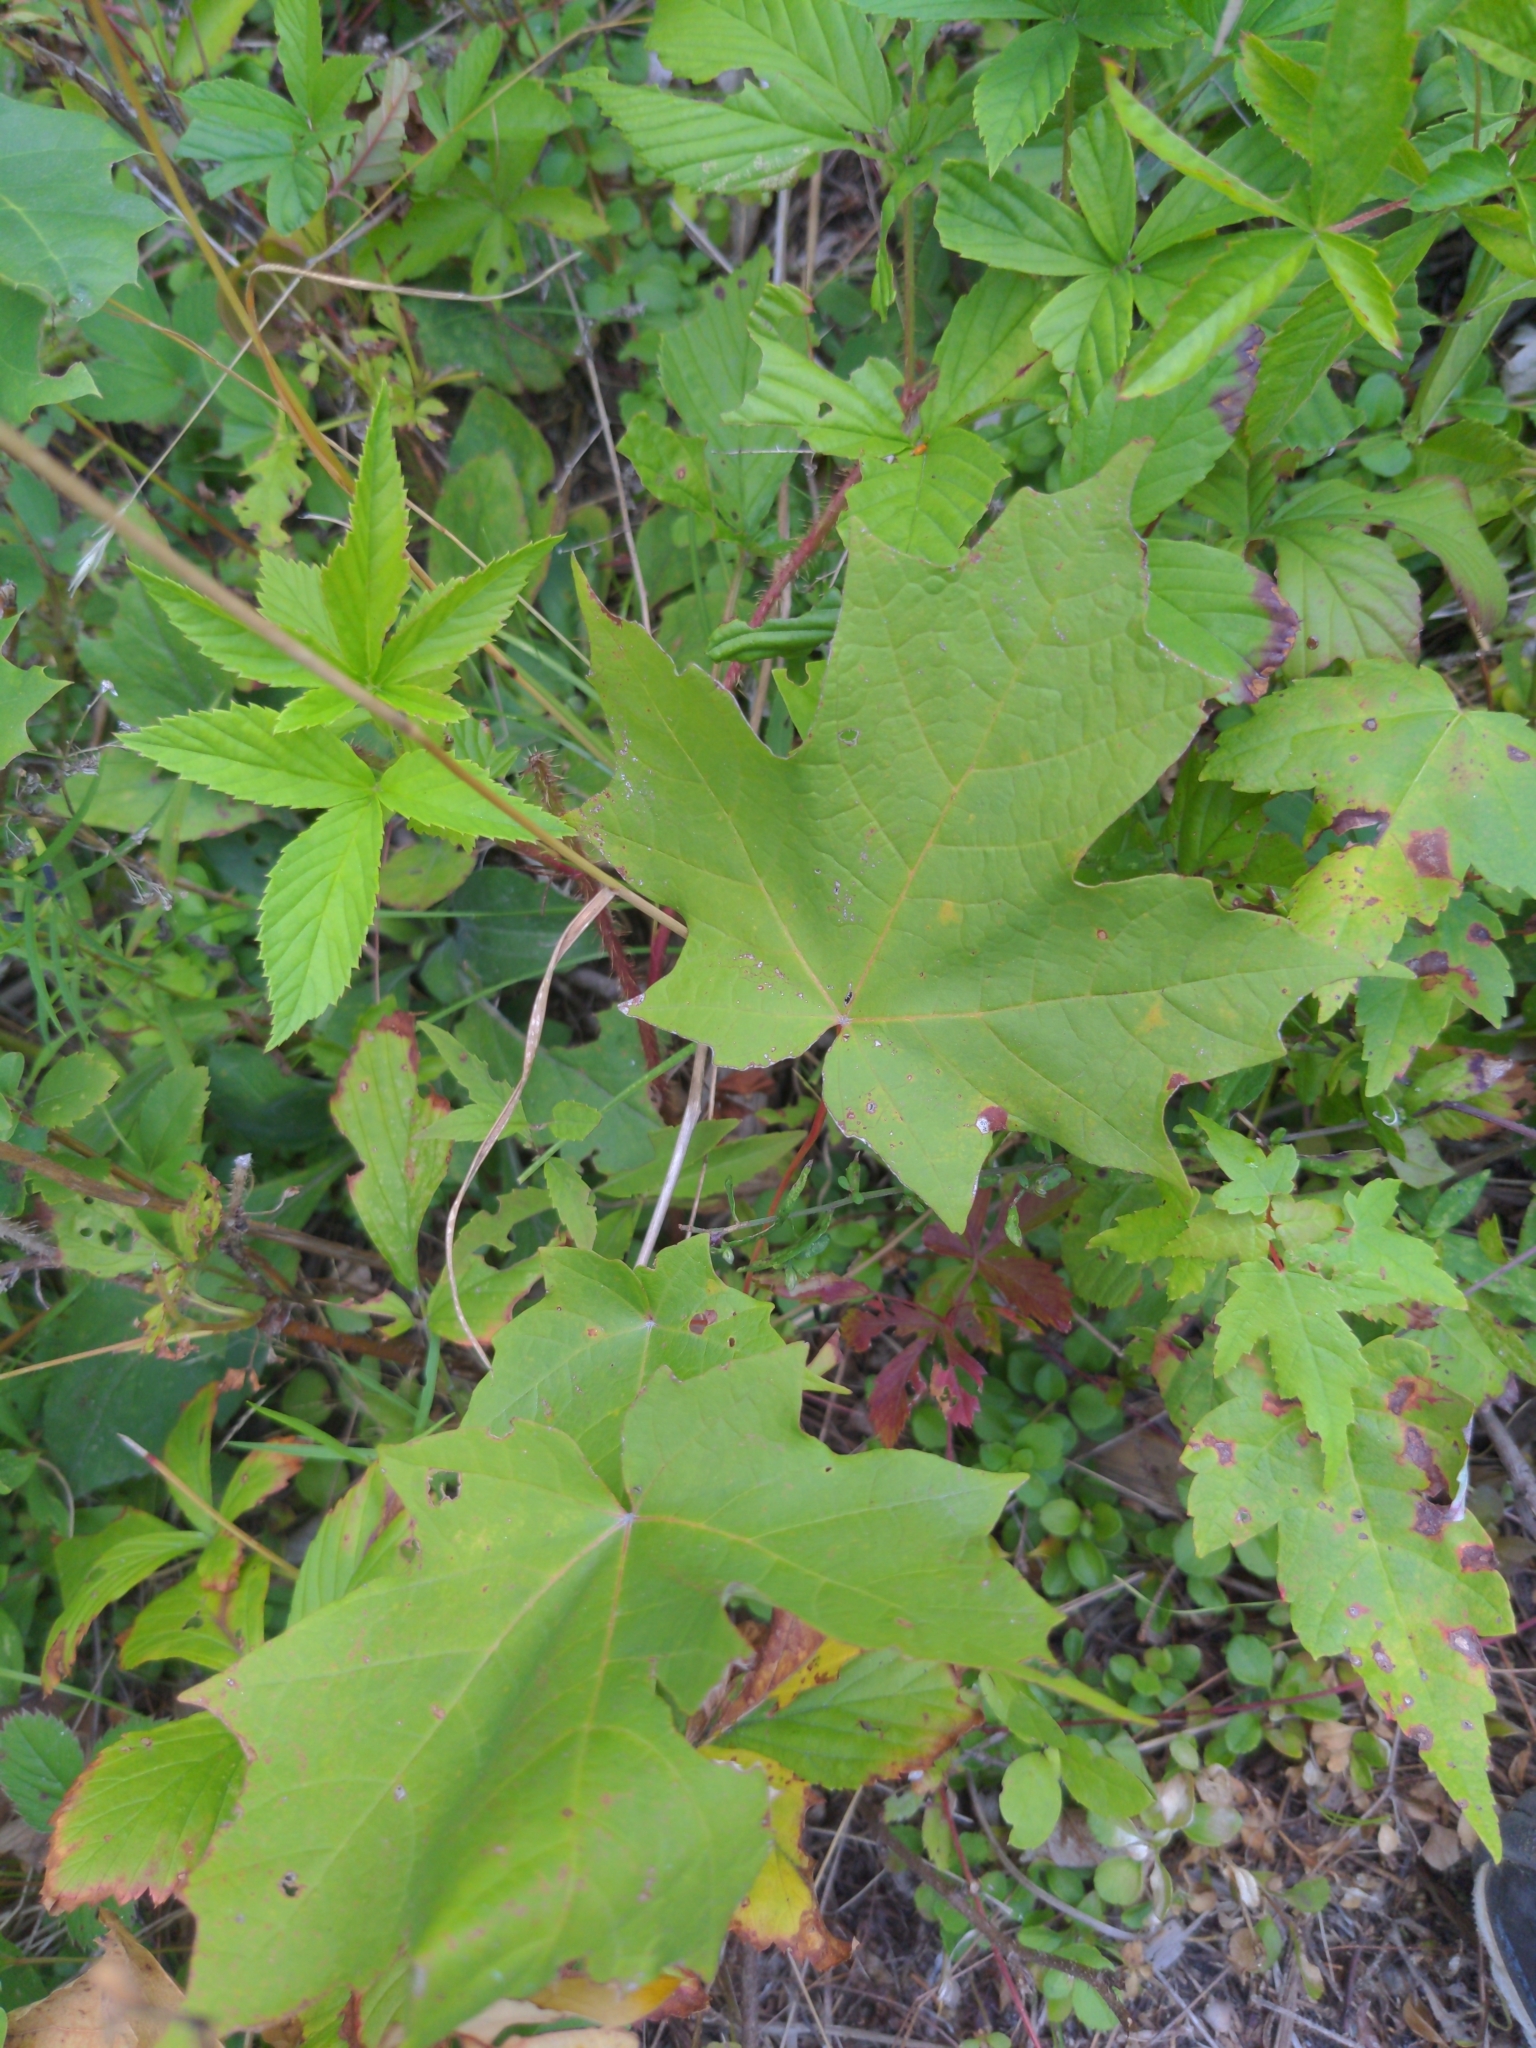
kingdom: Plantae
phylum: Tracheophyta
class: Magnoliopsida
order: Sapindales
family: Sapindaceae
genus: Acer
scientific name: Acer saccharum
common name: Sugar maple
